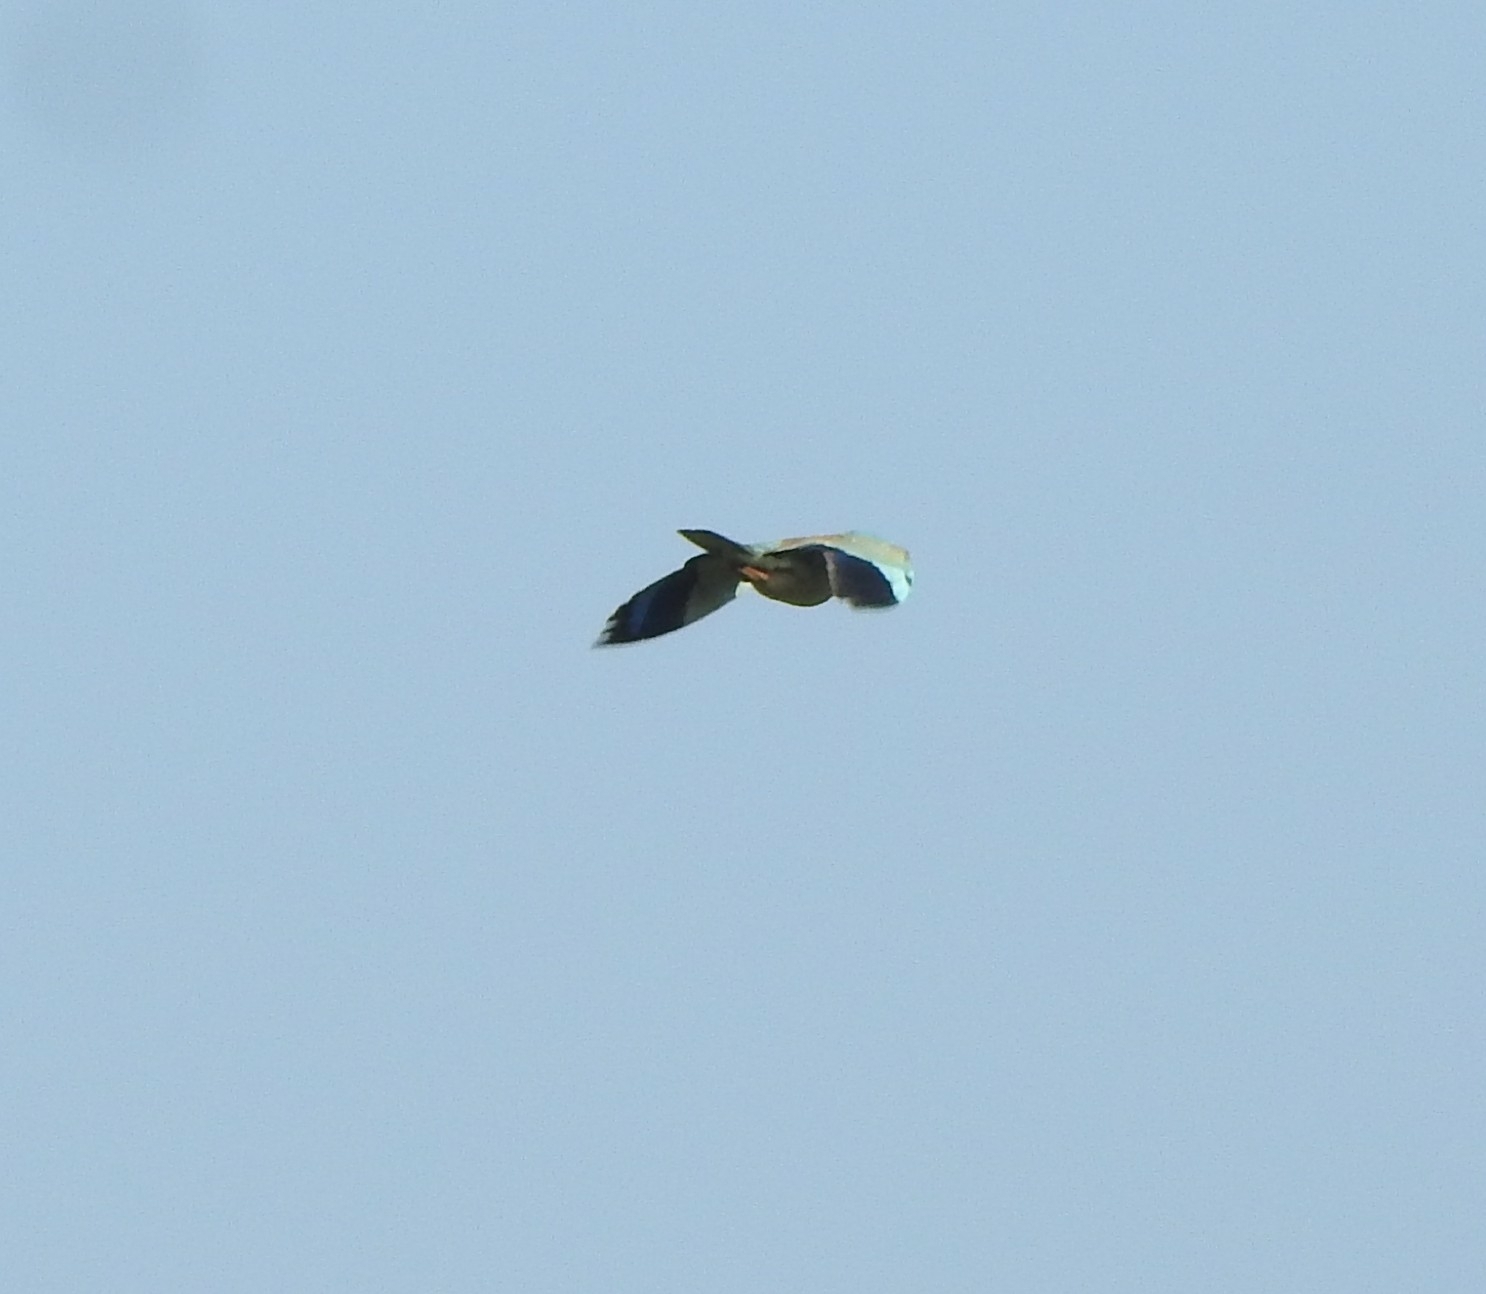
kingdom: Animalia
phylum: Chordata
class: Aves
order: Coraciiformes
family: Coraciidae
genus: Coracias
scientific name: Coracias garrulus
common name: European roller
